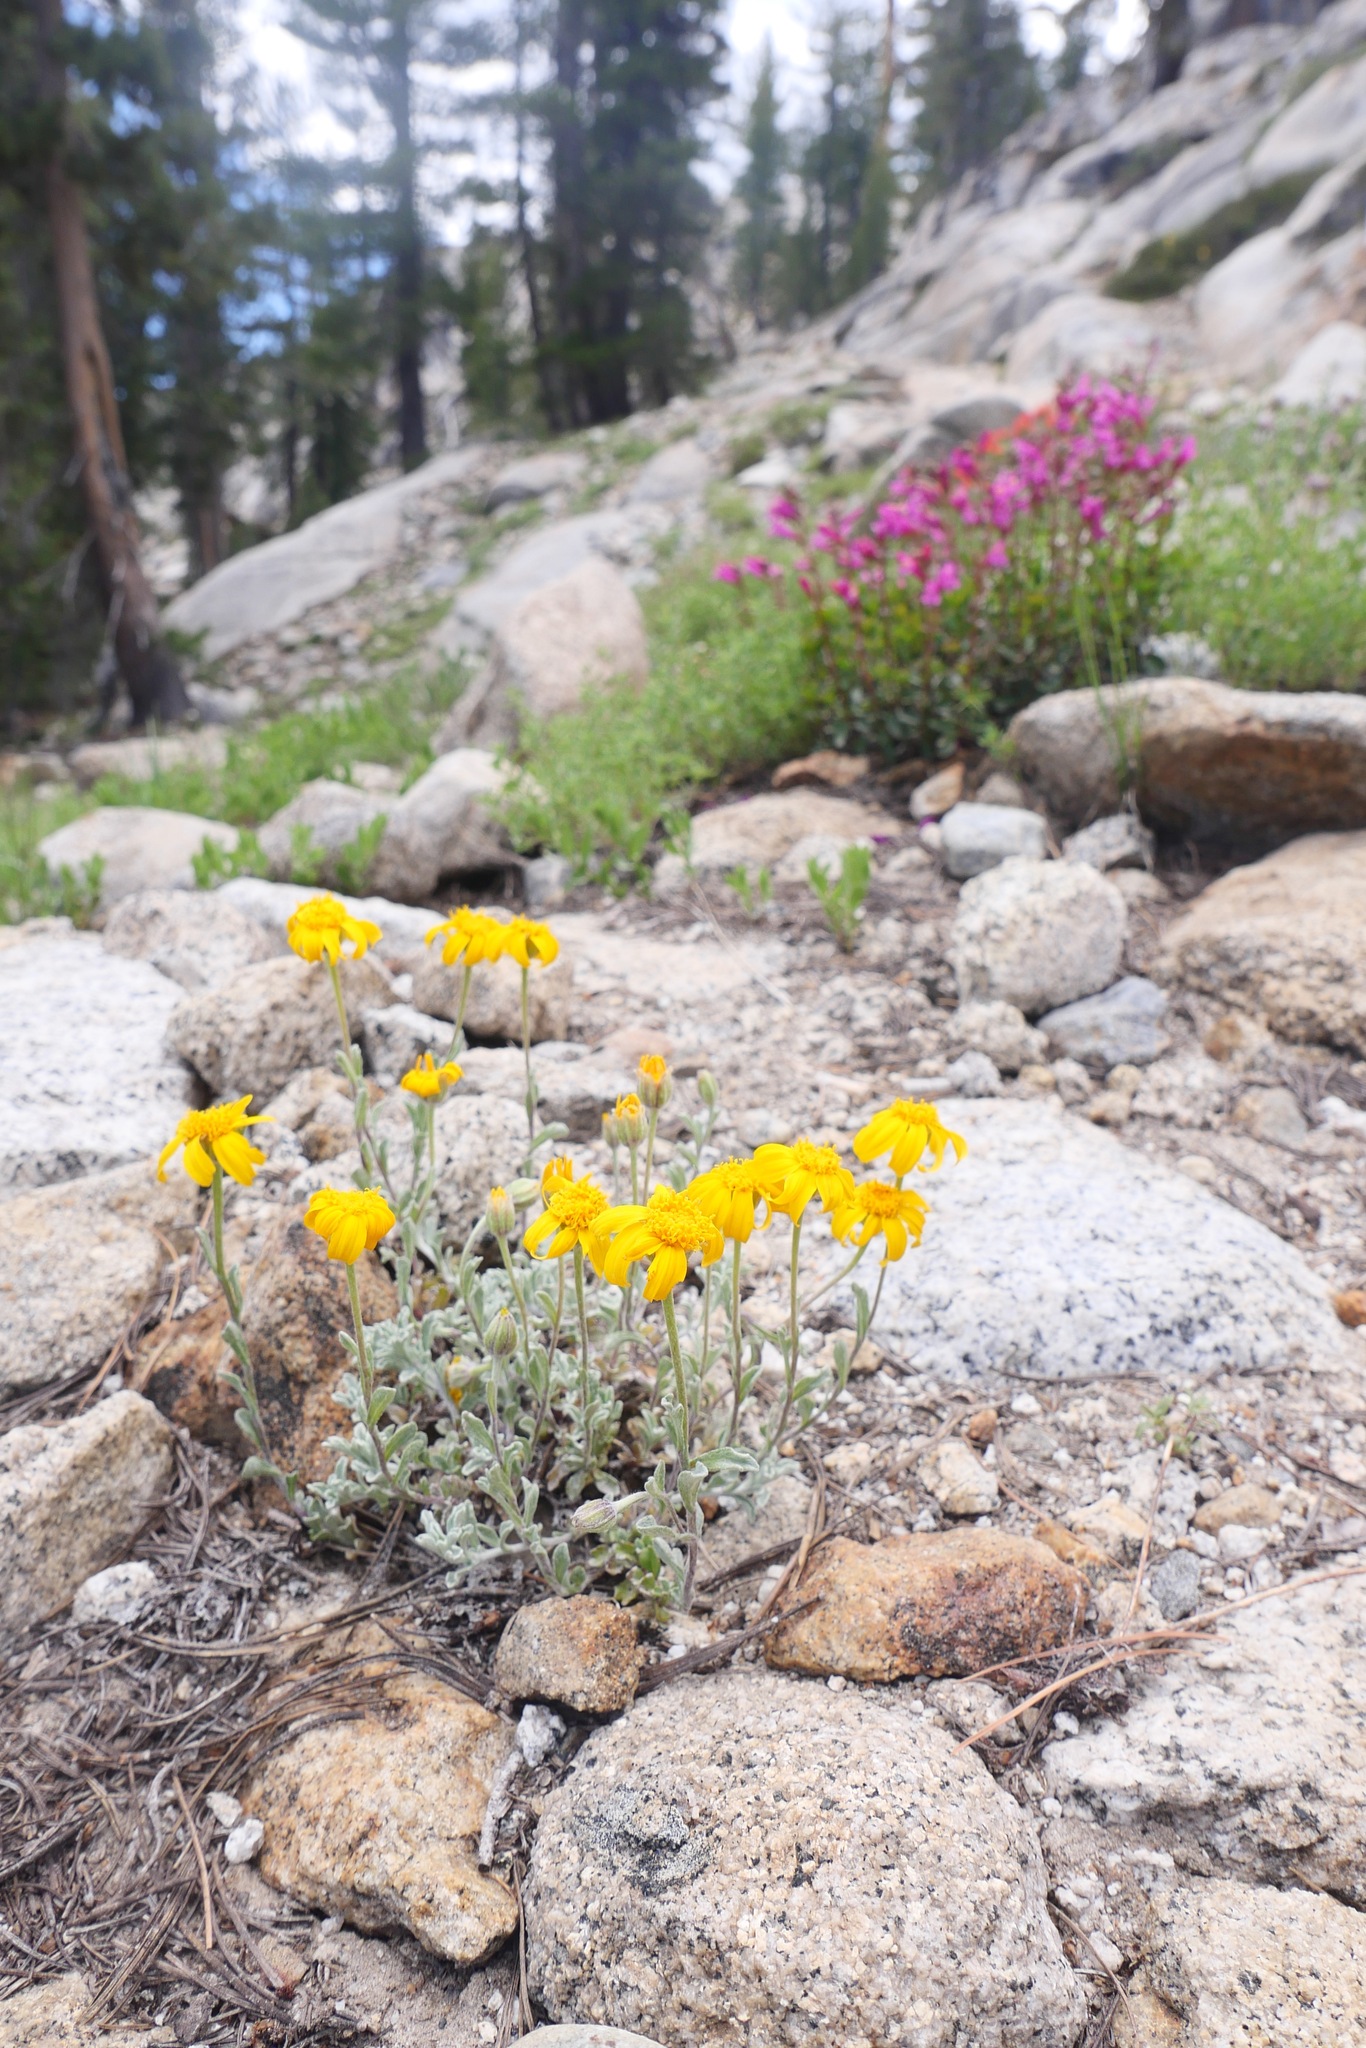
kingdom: Plantae
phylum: Tracheophyta
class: Magnoliopsida
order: Asterales
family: Asteraceae
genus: Eriophyllum
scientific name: Eriophyllum lanatum
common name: Common woolly-sunflower
